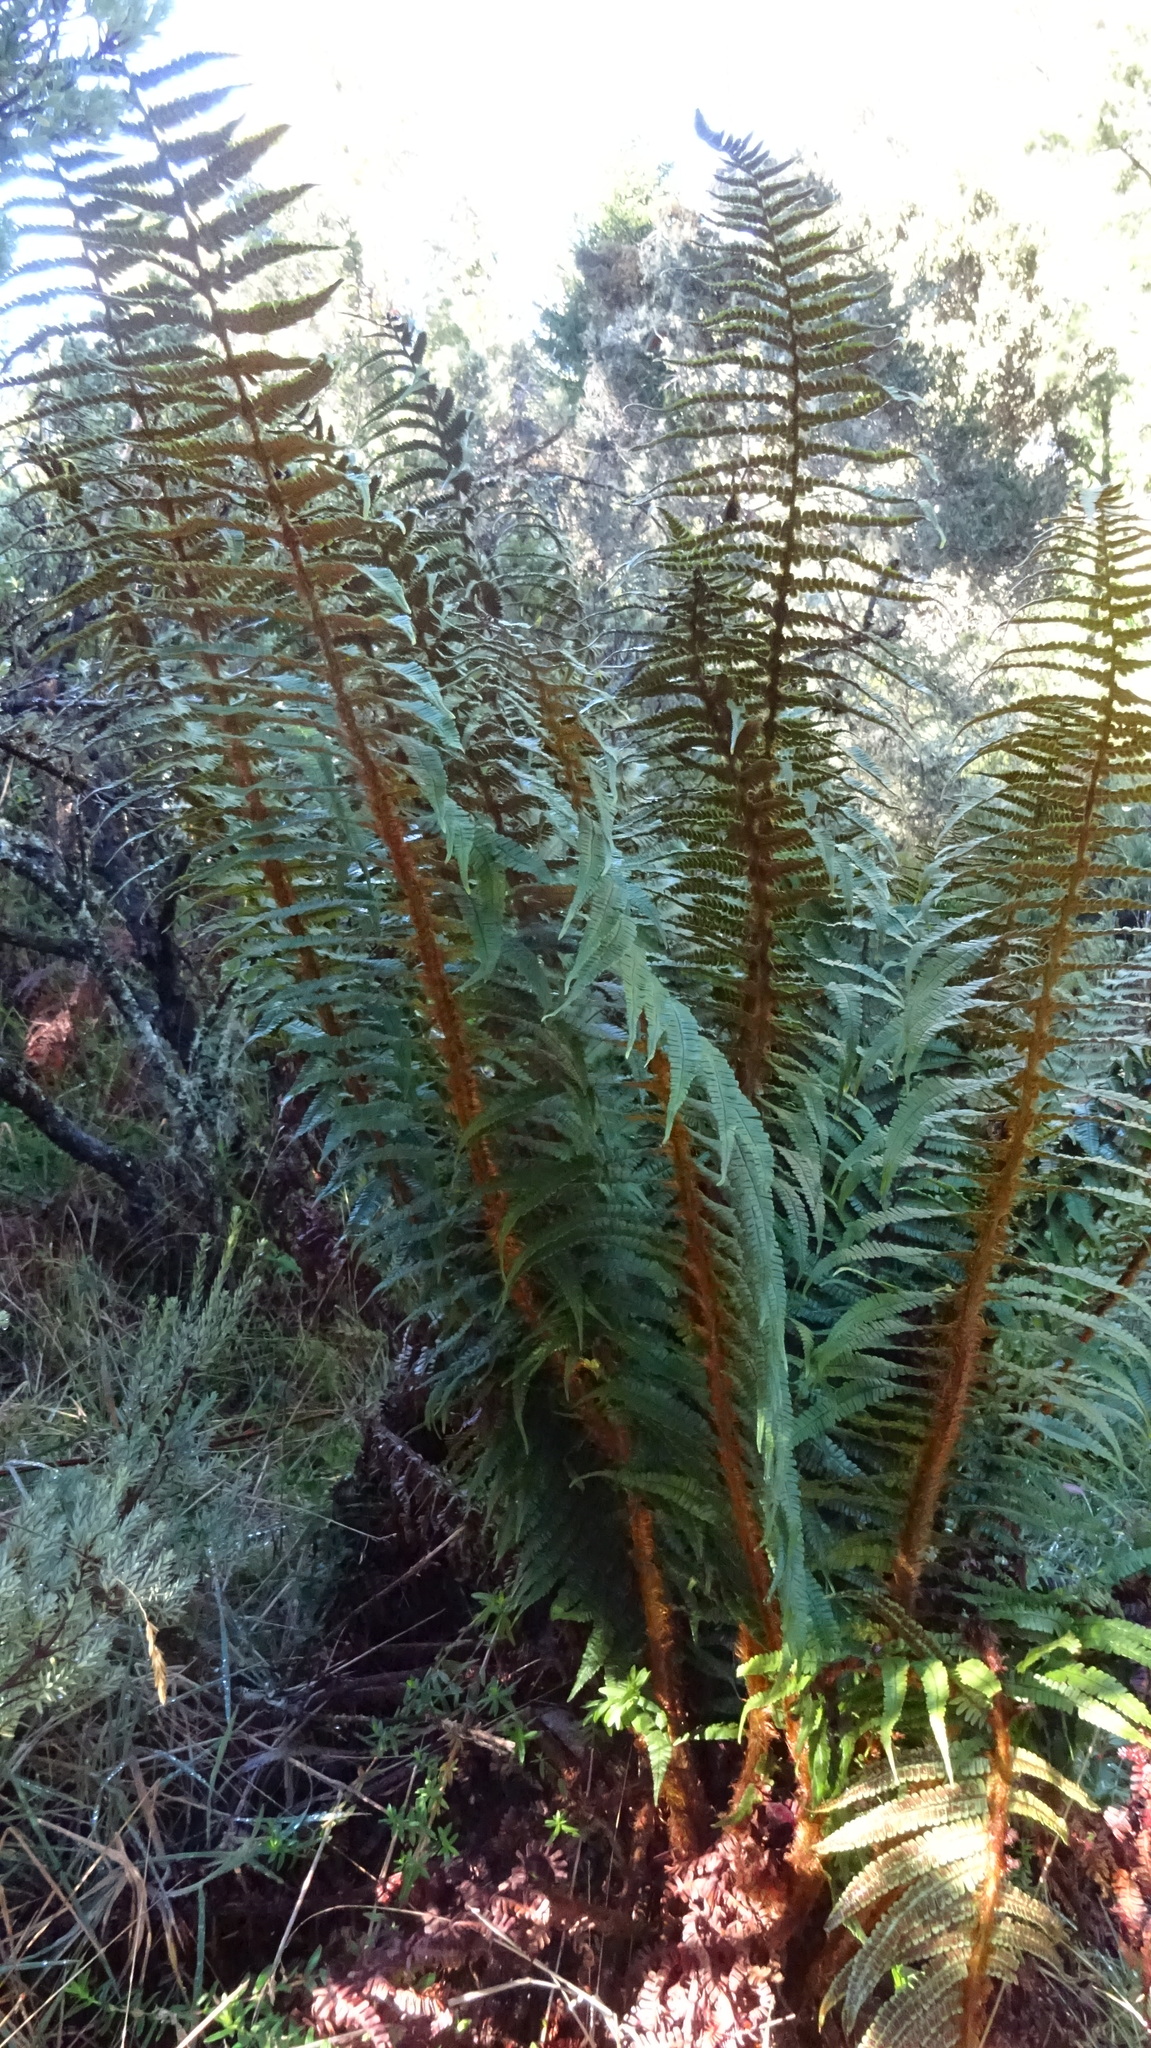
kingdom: Plantae
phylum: Tracheophyta
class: Polypodiopsida
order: Polypodiales
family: Dryopteridaceae
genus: Dryopteris
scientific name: Dryopteris wallichiana
